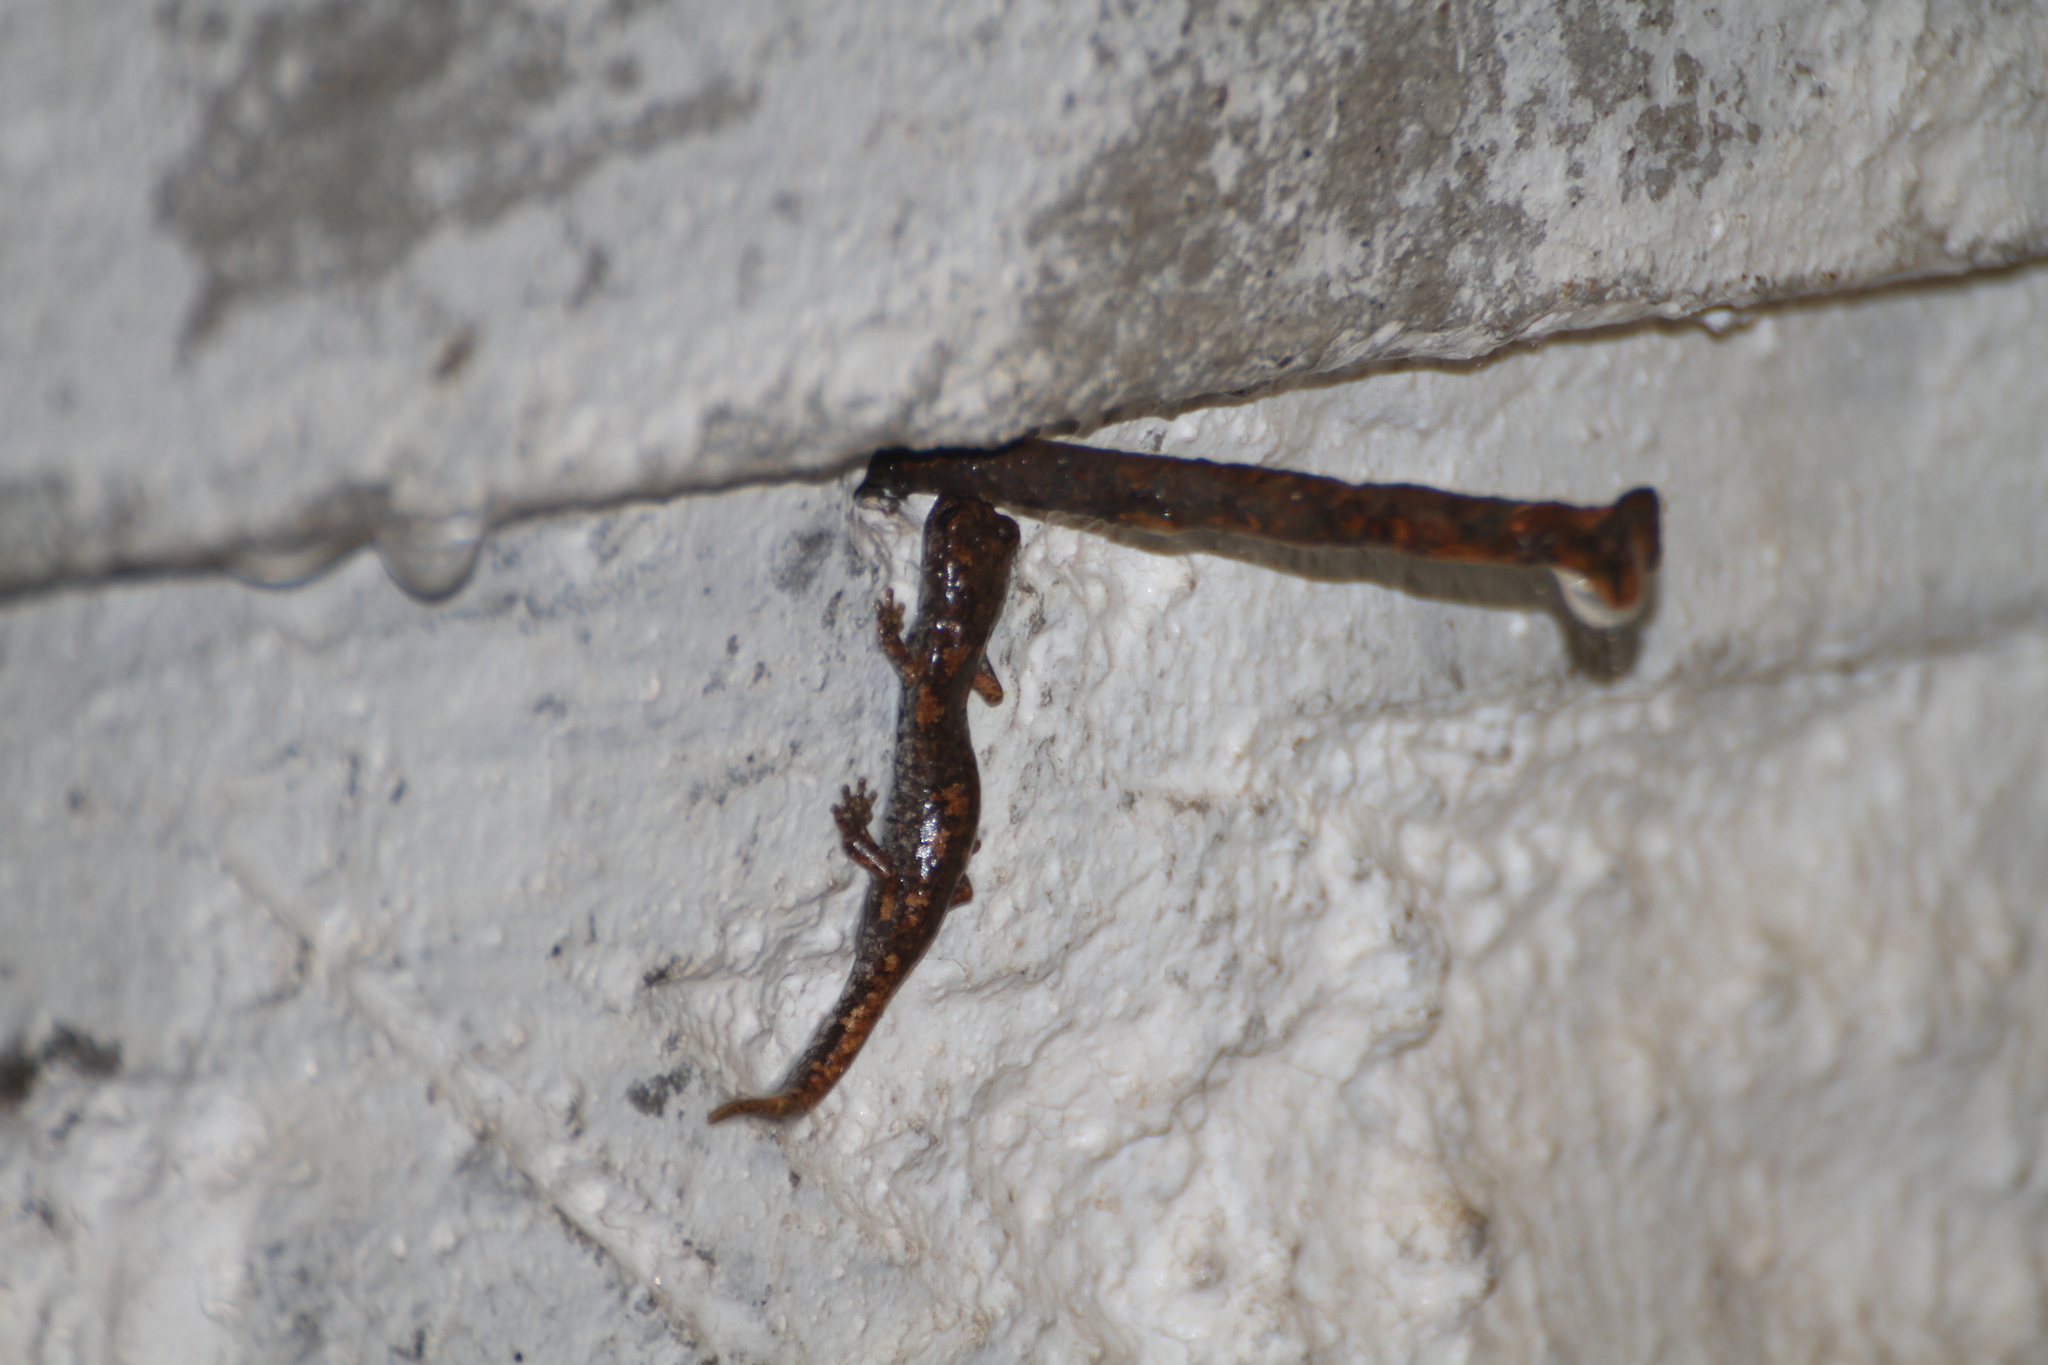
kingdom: Animalia
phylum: Chordata
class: Amphibia
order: Caudata
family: Plethodontidae
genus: Speleomantes
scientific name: Speleomantes strinatii
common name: French cave salamander
